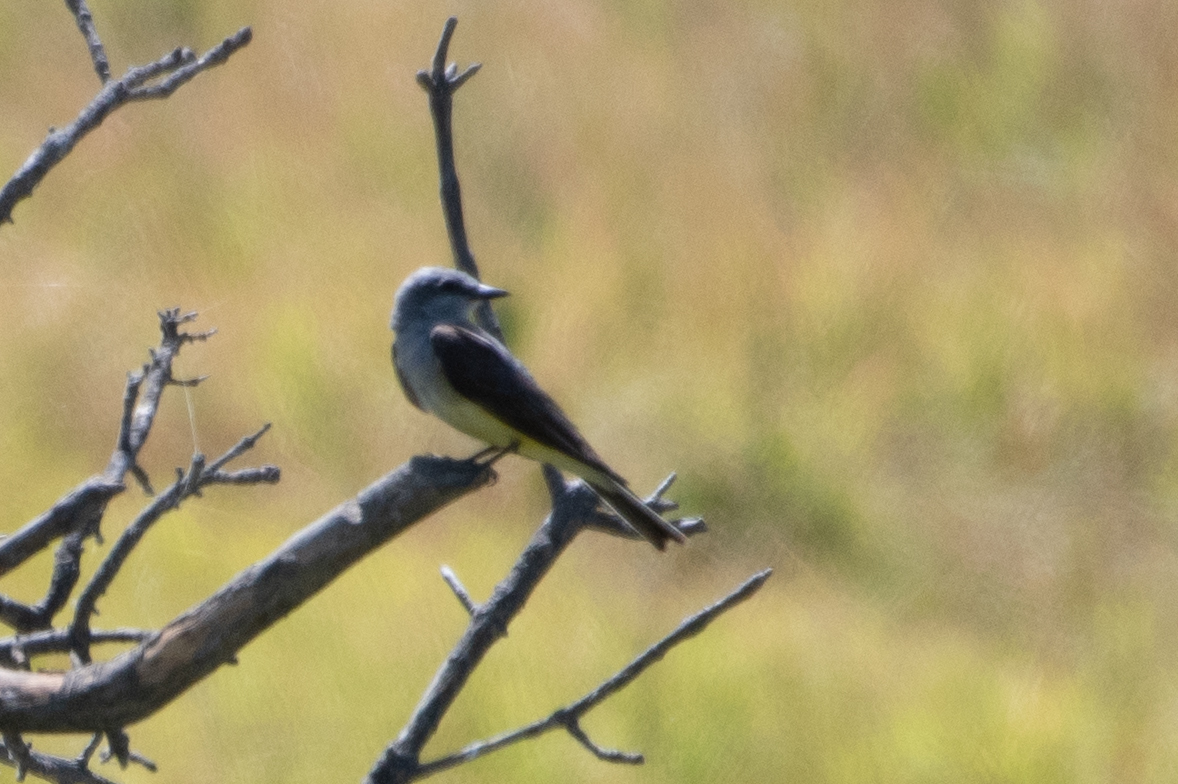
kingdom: Animalia
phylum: Chordata
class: Aves
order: Passeriformes
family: Tyrannidae
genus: Tyrannus
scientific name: Tyrannus verticalis
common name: Western kingbird
